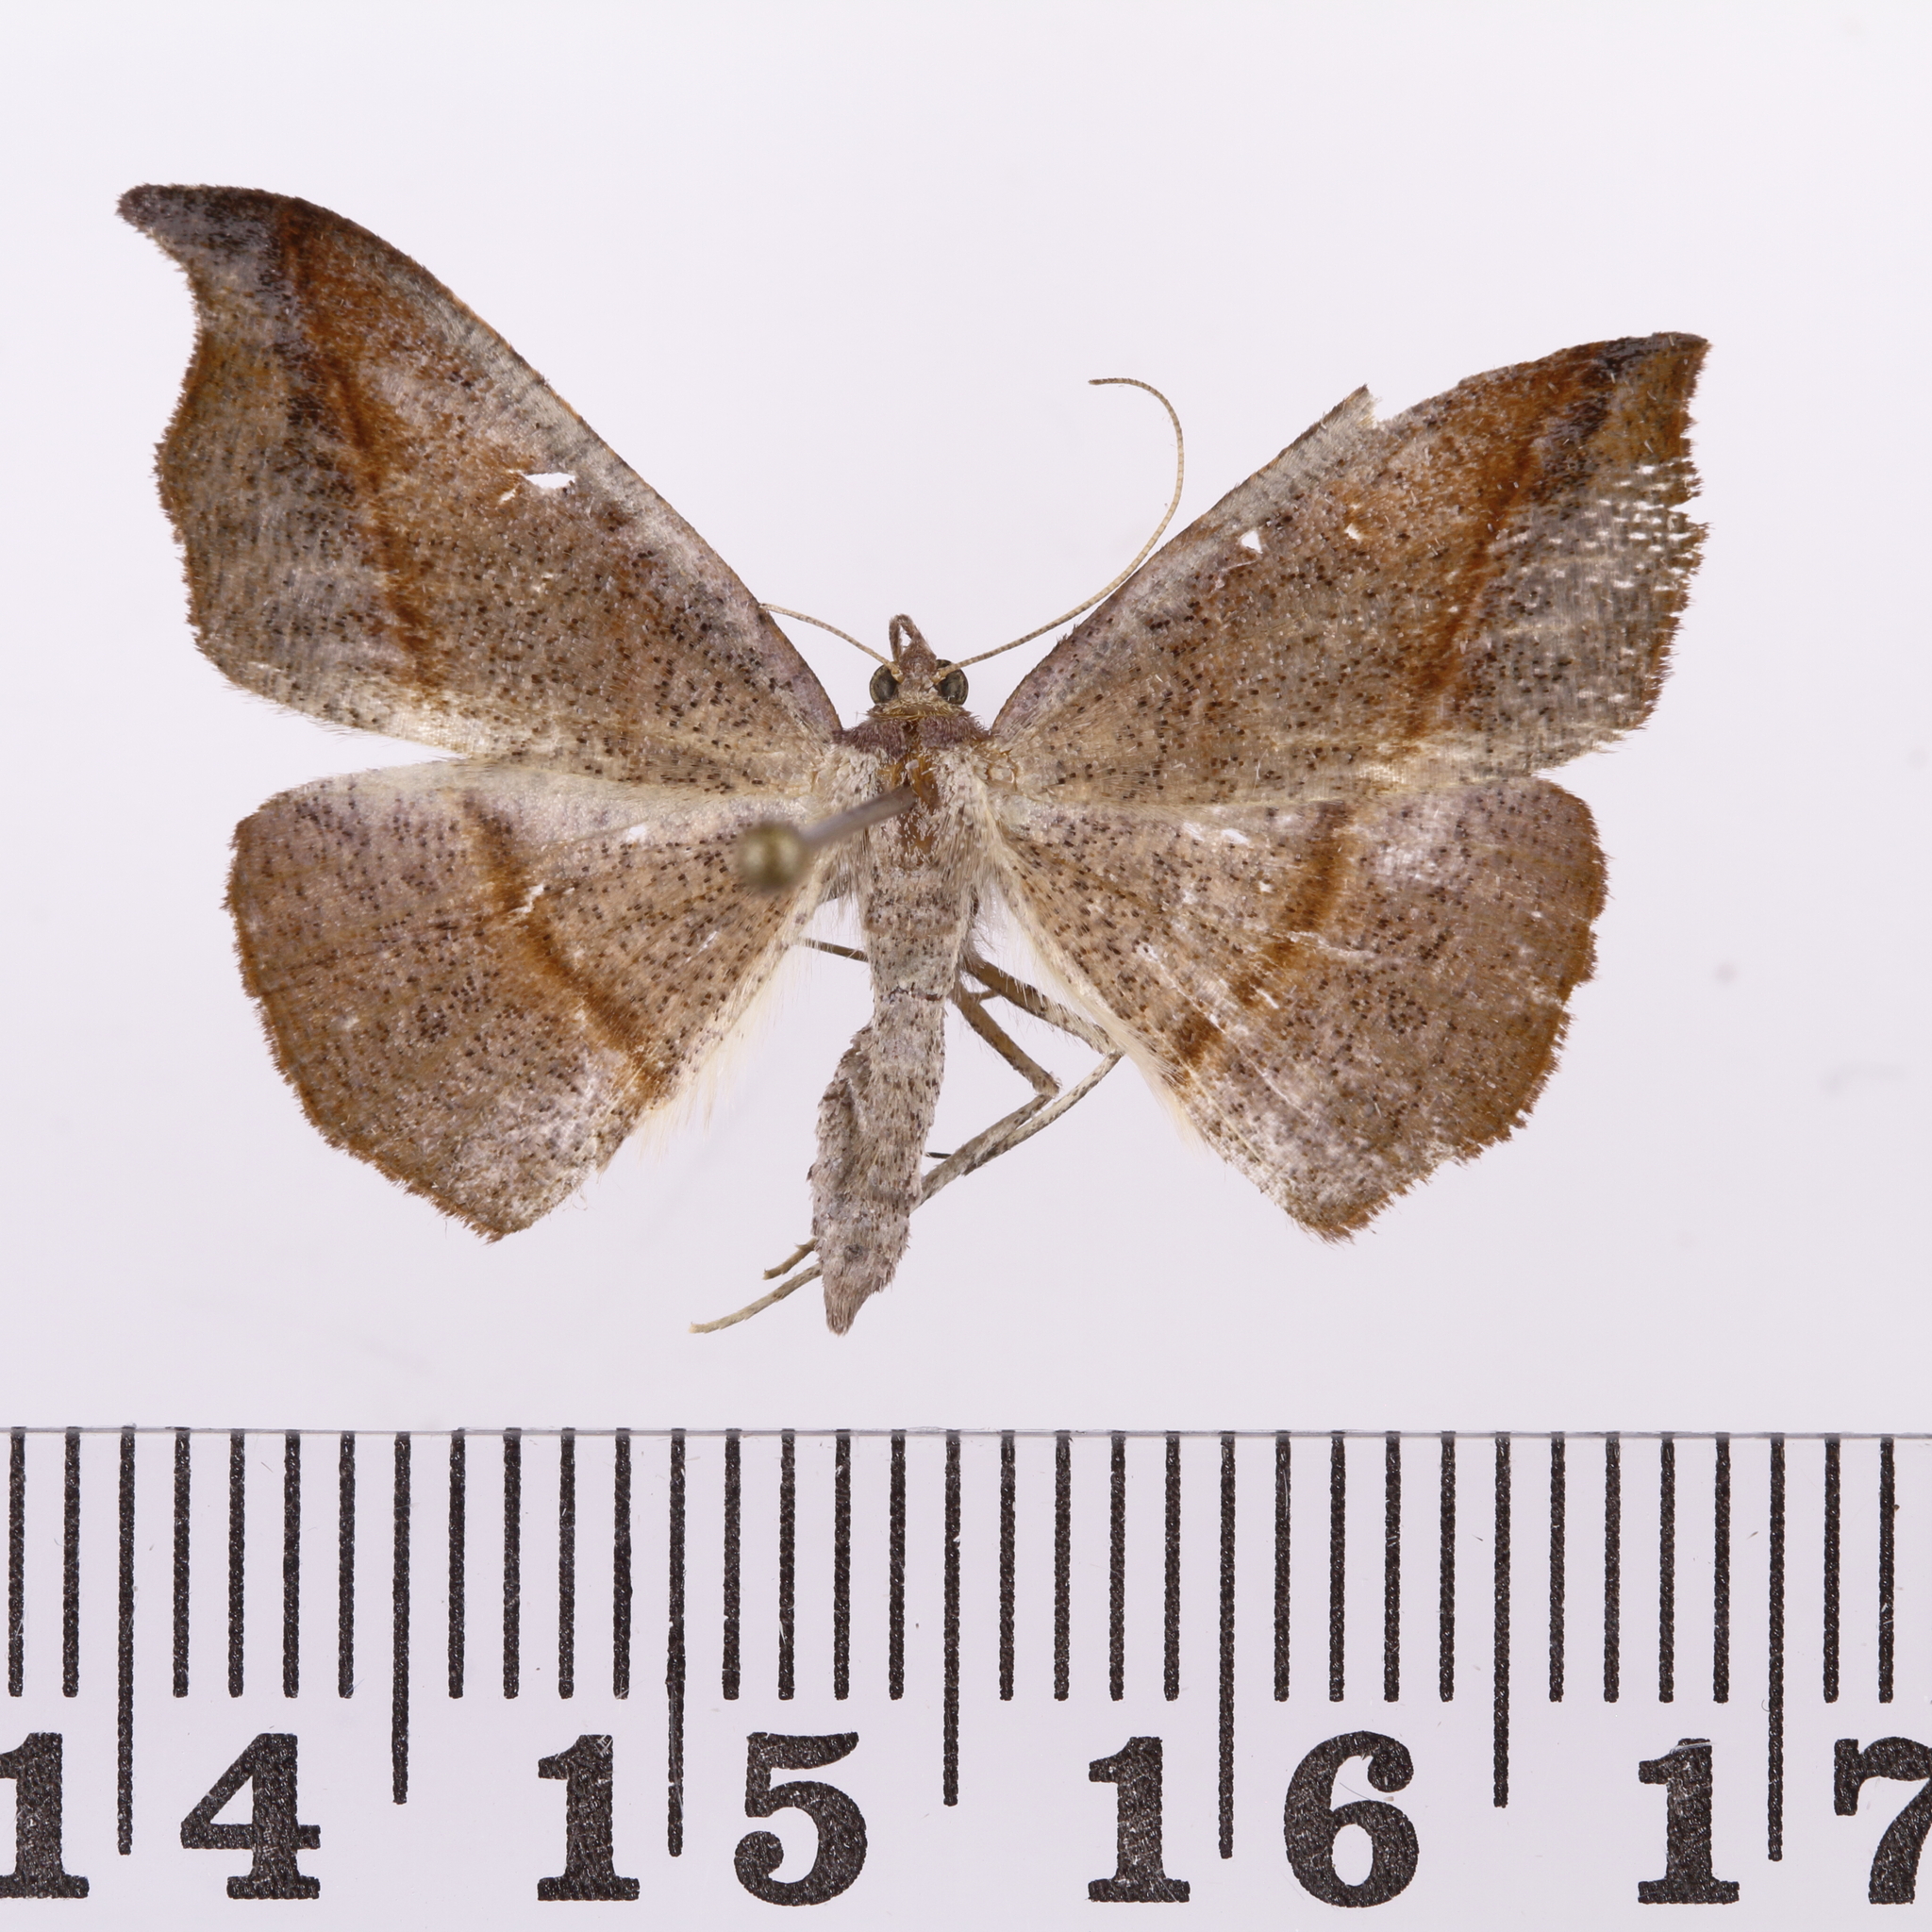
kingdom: Animalia
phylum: Arthropoda
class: Insecta
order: Lepidoptera
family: Geometridae
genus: Sestra
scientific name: Sestra flexata
